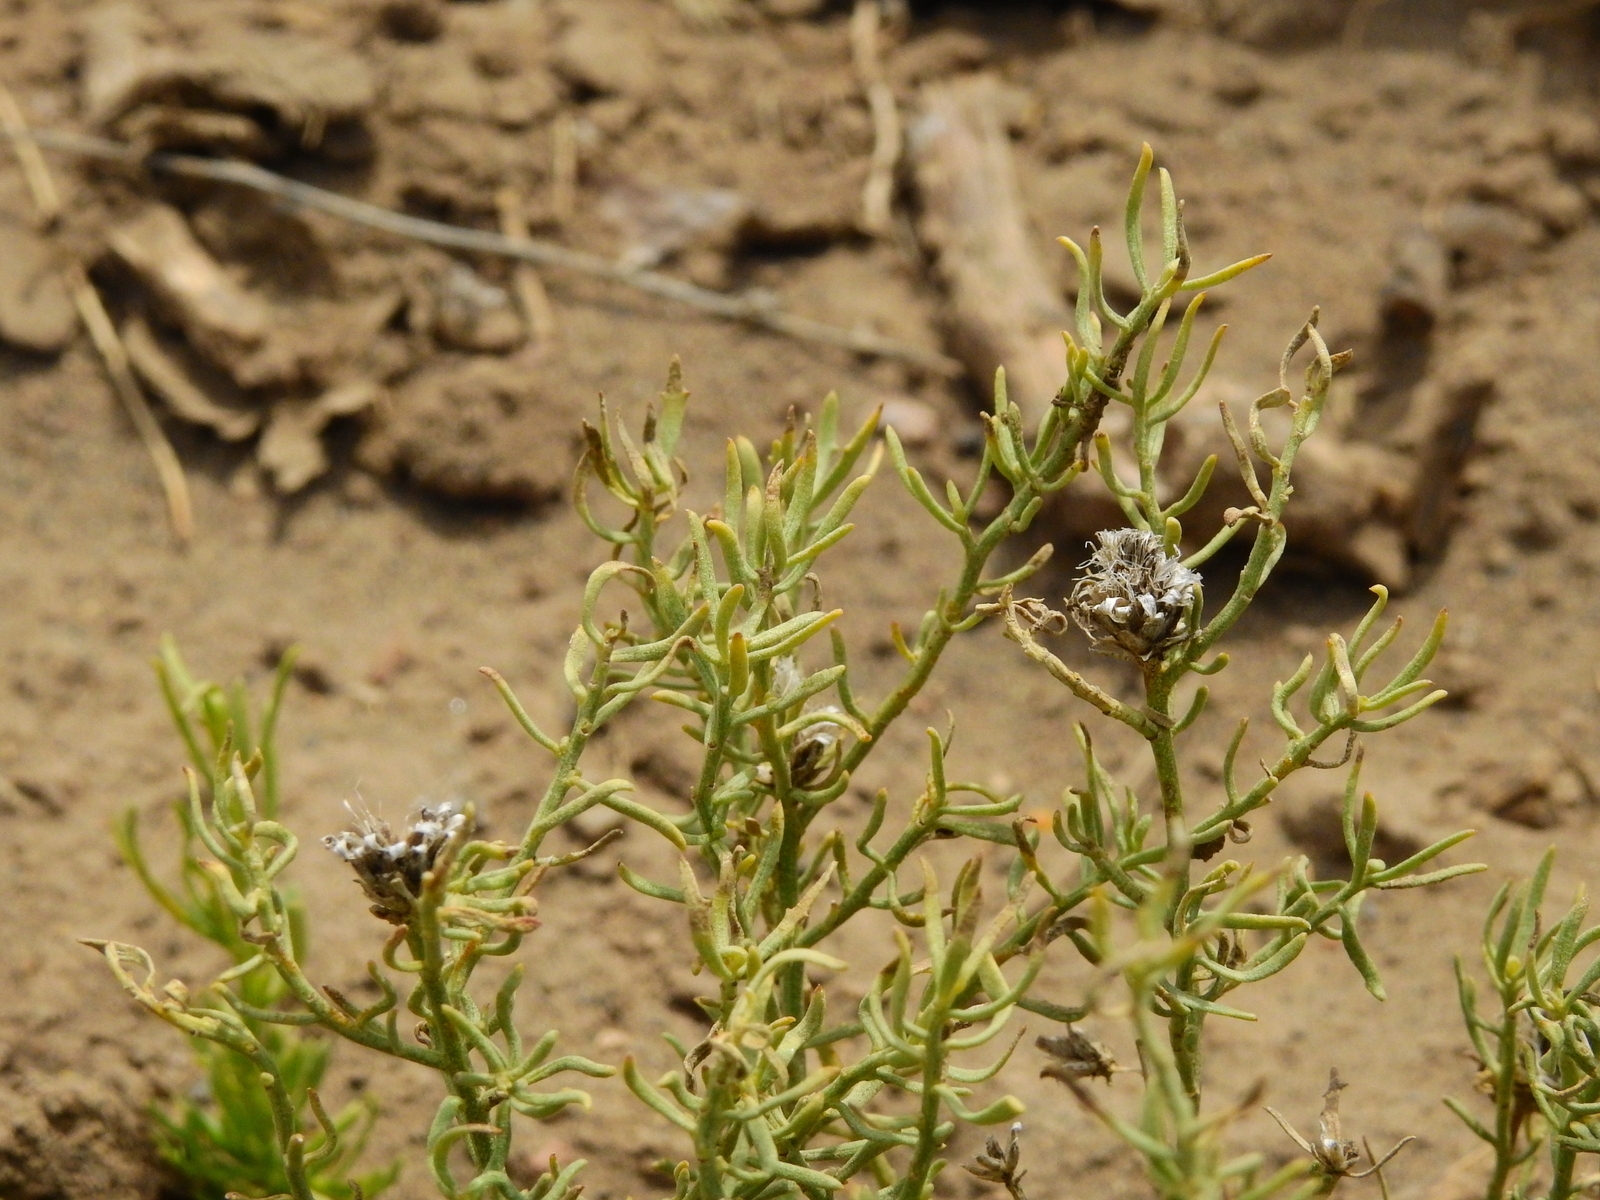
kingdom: Plantae
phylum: Tracheophyta
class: Magnoliopsida
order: Asterales
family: Asteraceae
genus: Baccharis
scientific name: Baccharis gilliesii
